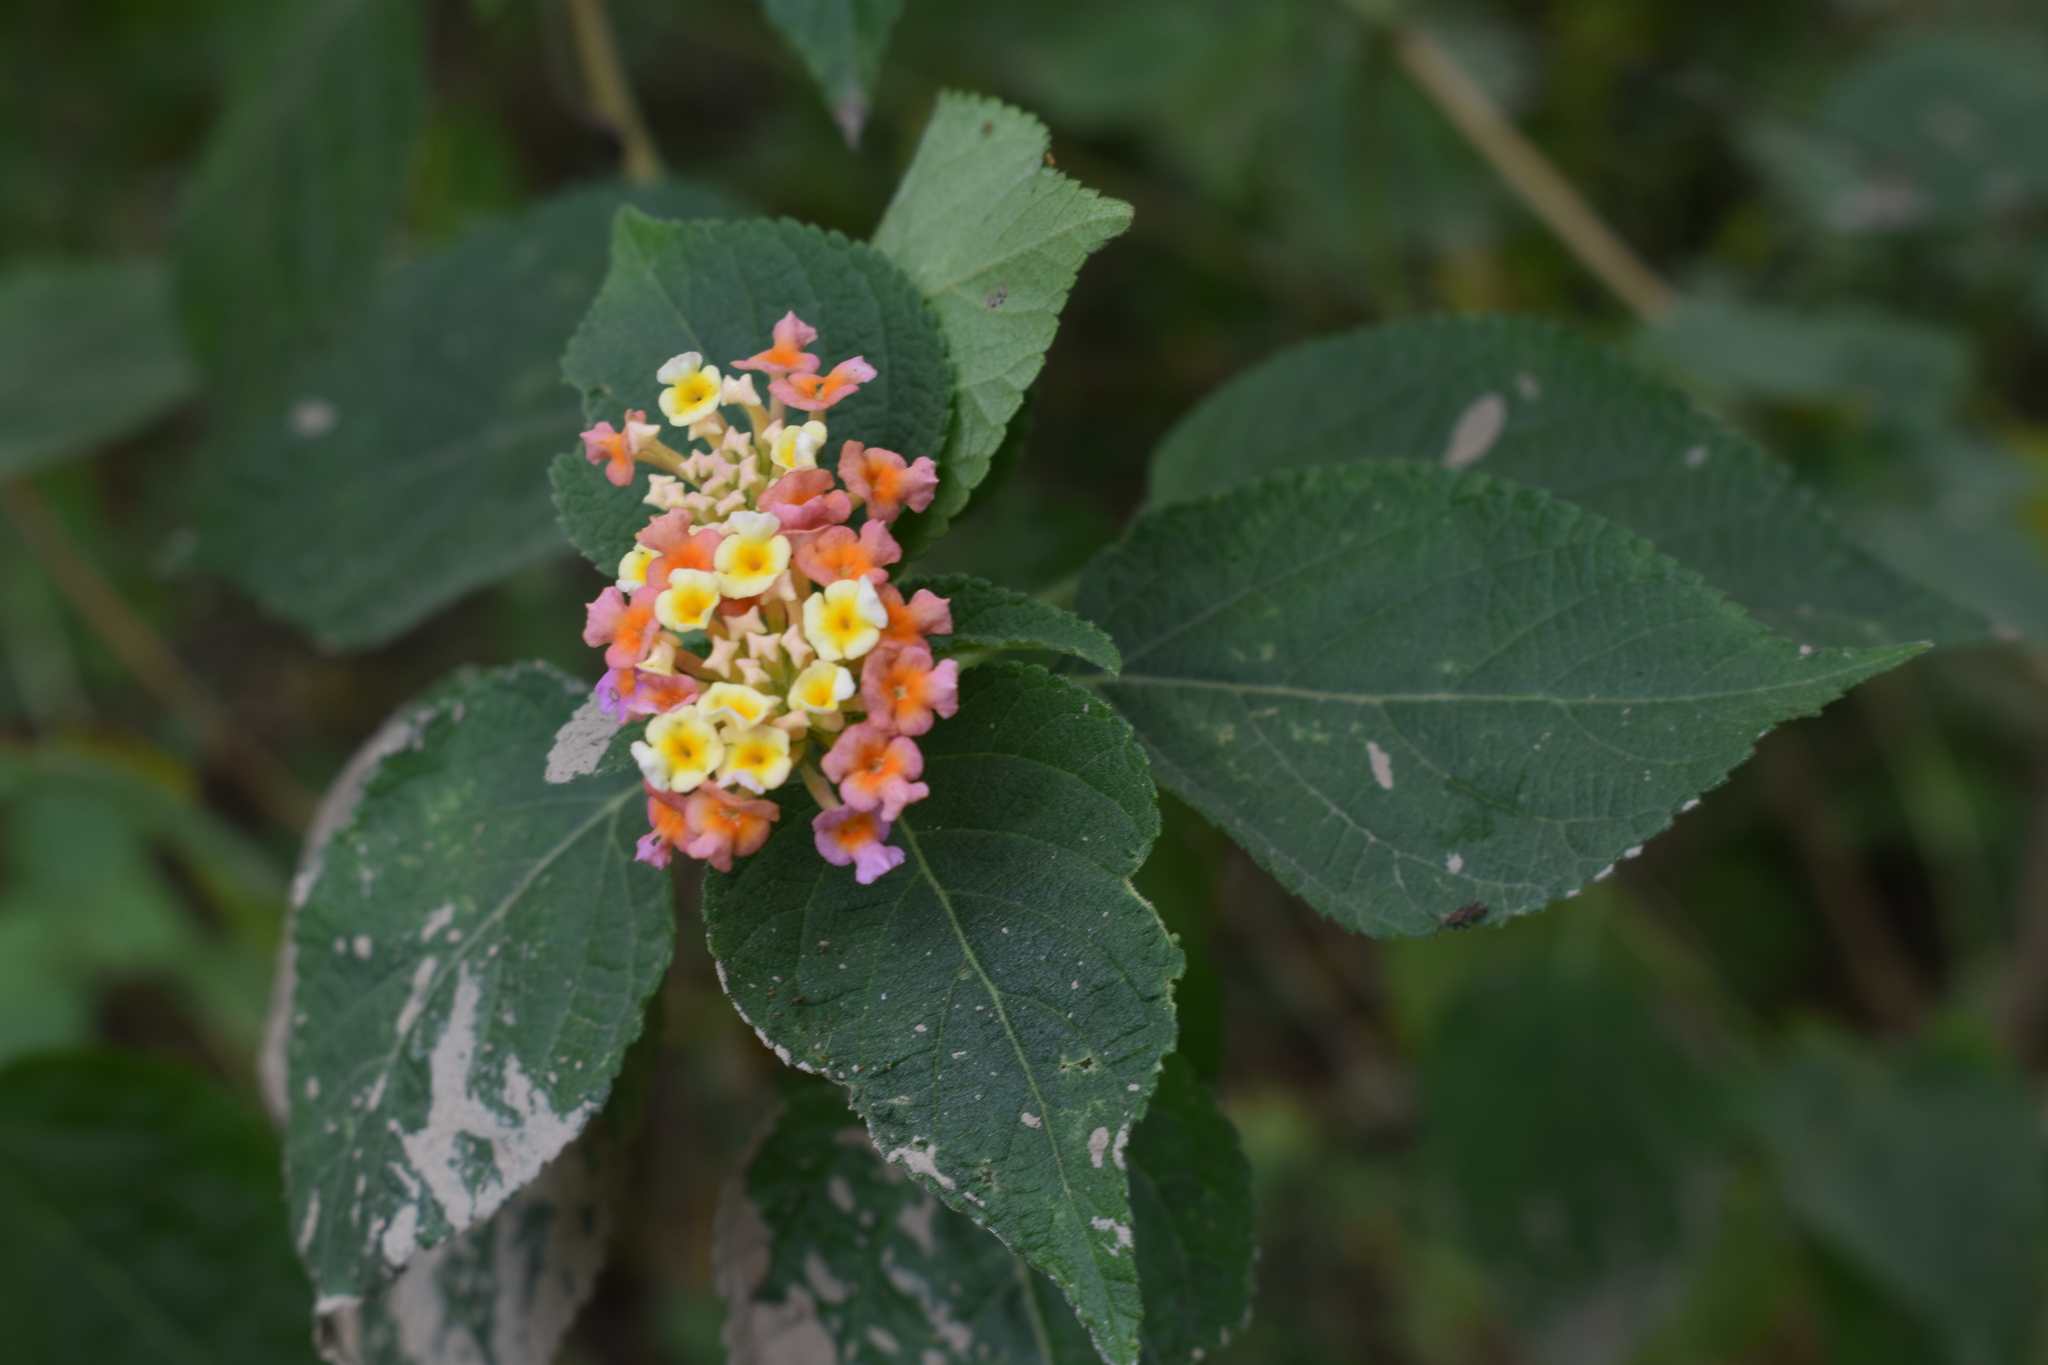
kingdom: Plantae
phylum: Tracheophyta
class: Magnoliopsida
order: Lamiales
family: Verbenaceae
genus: Lantana
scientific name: Lantana camara
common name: Lantana
